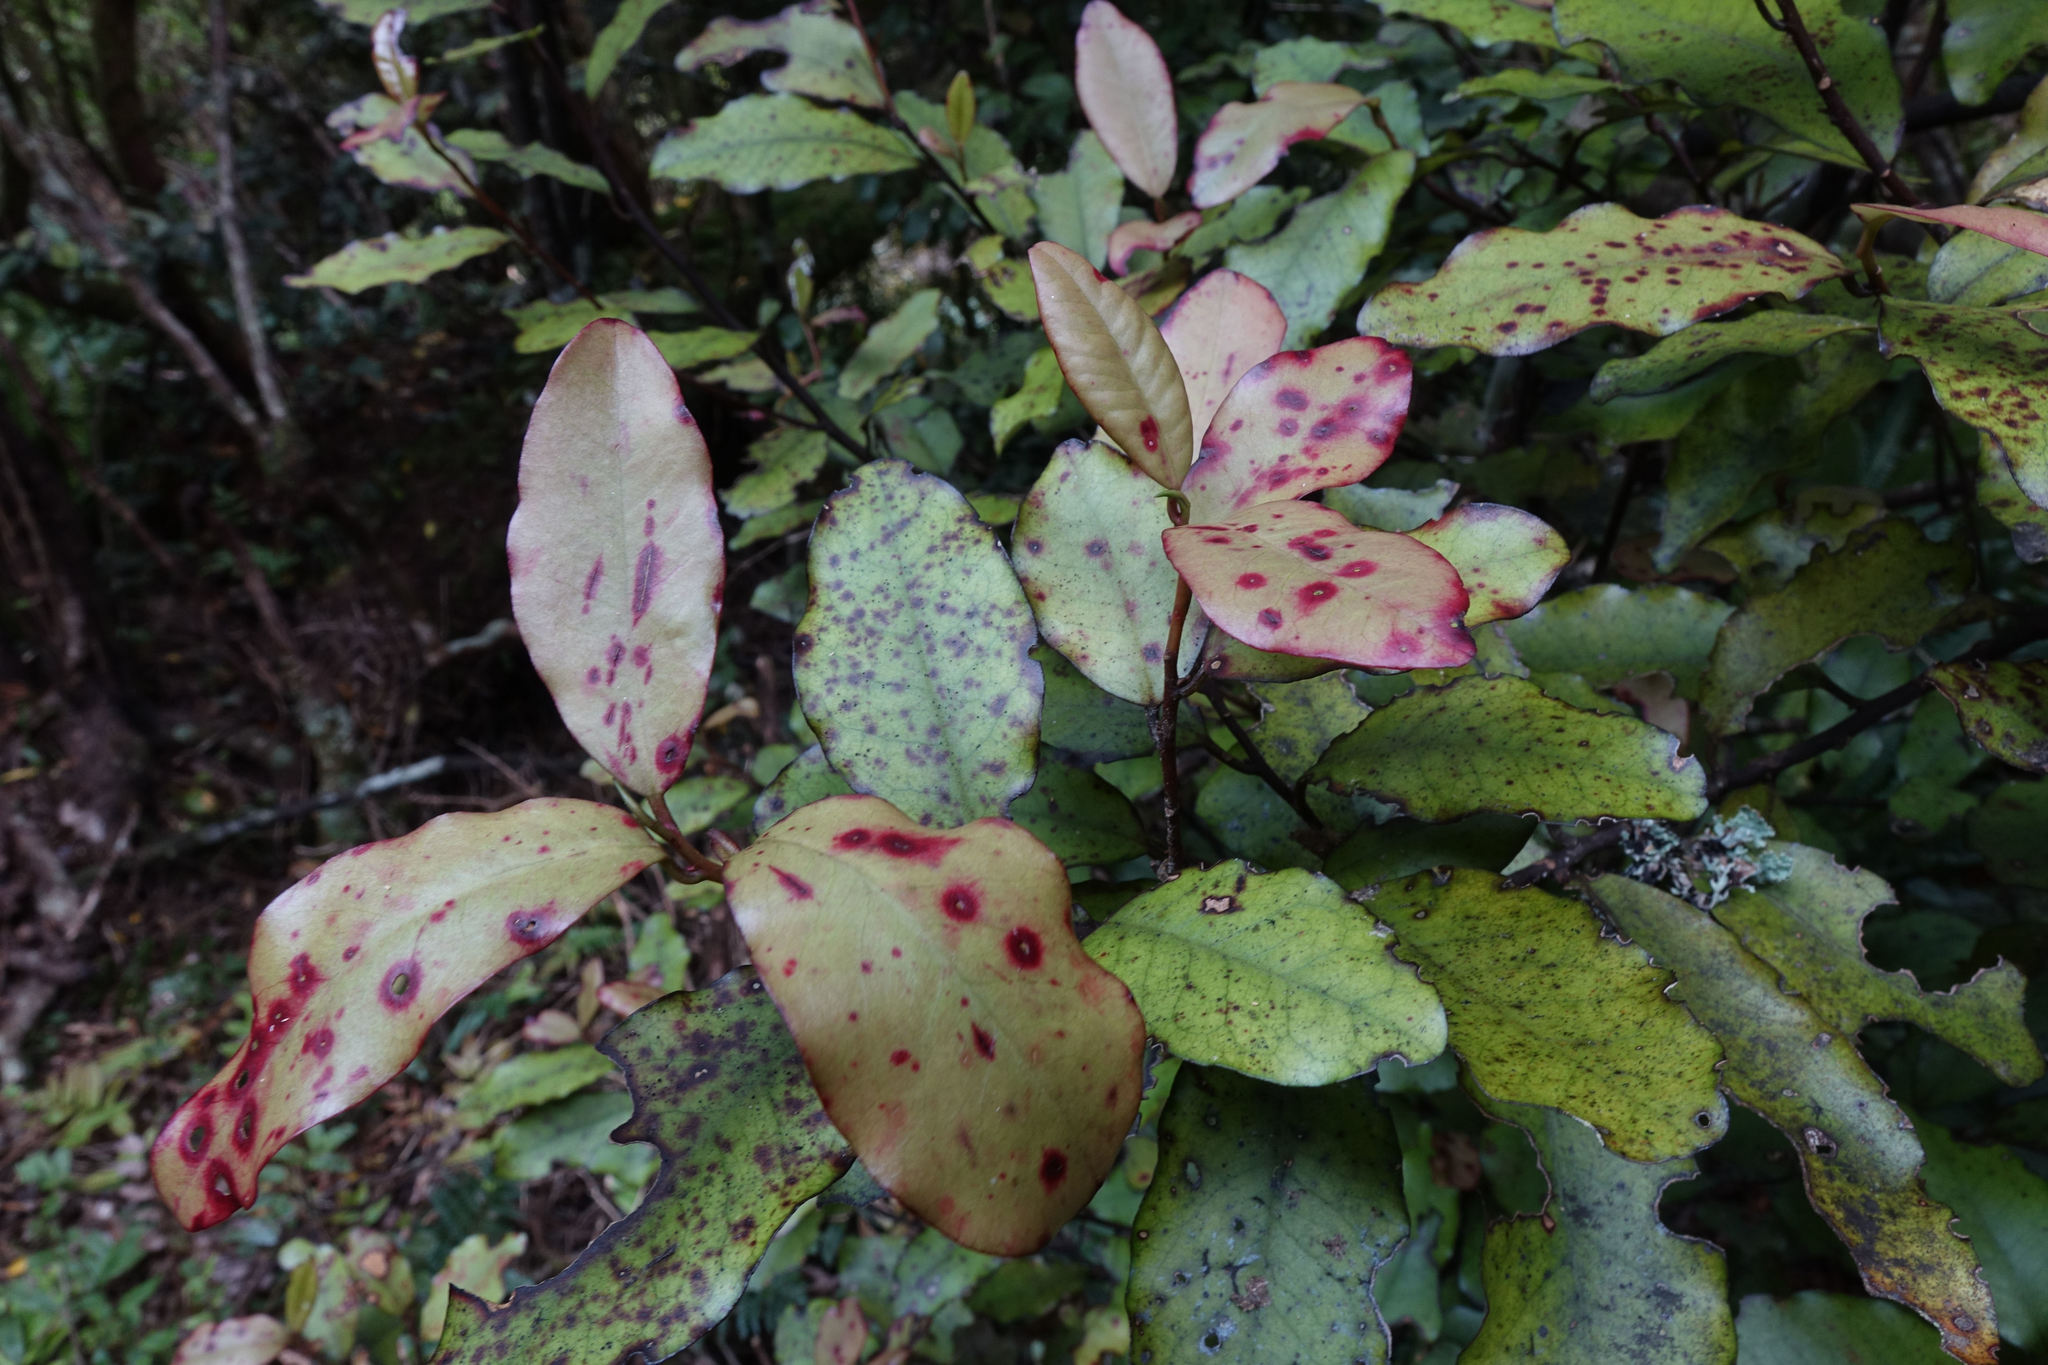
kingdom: Plantae
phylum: Tracheophyta
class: Magnoliopsida
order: Canellales
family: Winteraceae
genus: Pseudowintera
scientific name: Pseudowintera colorata
